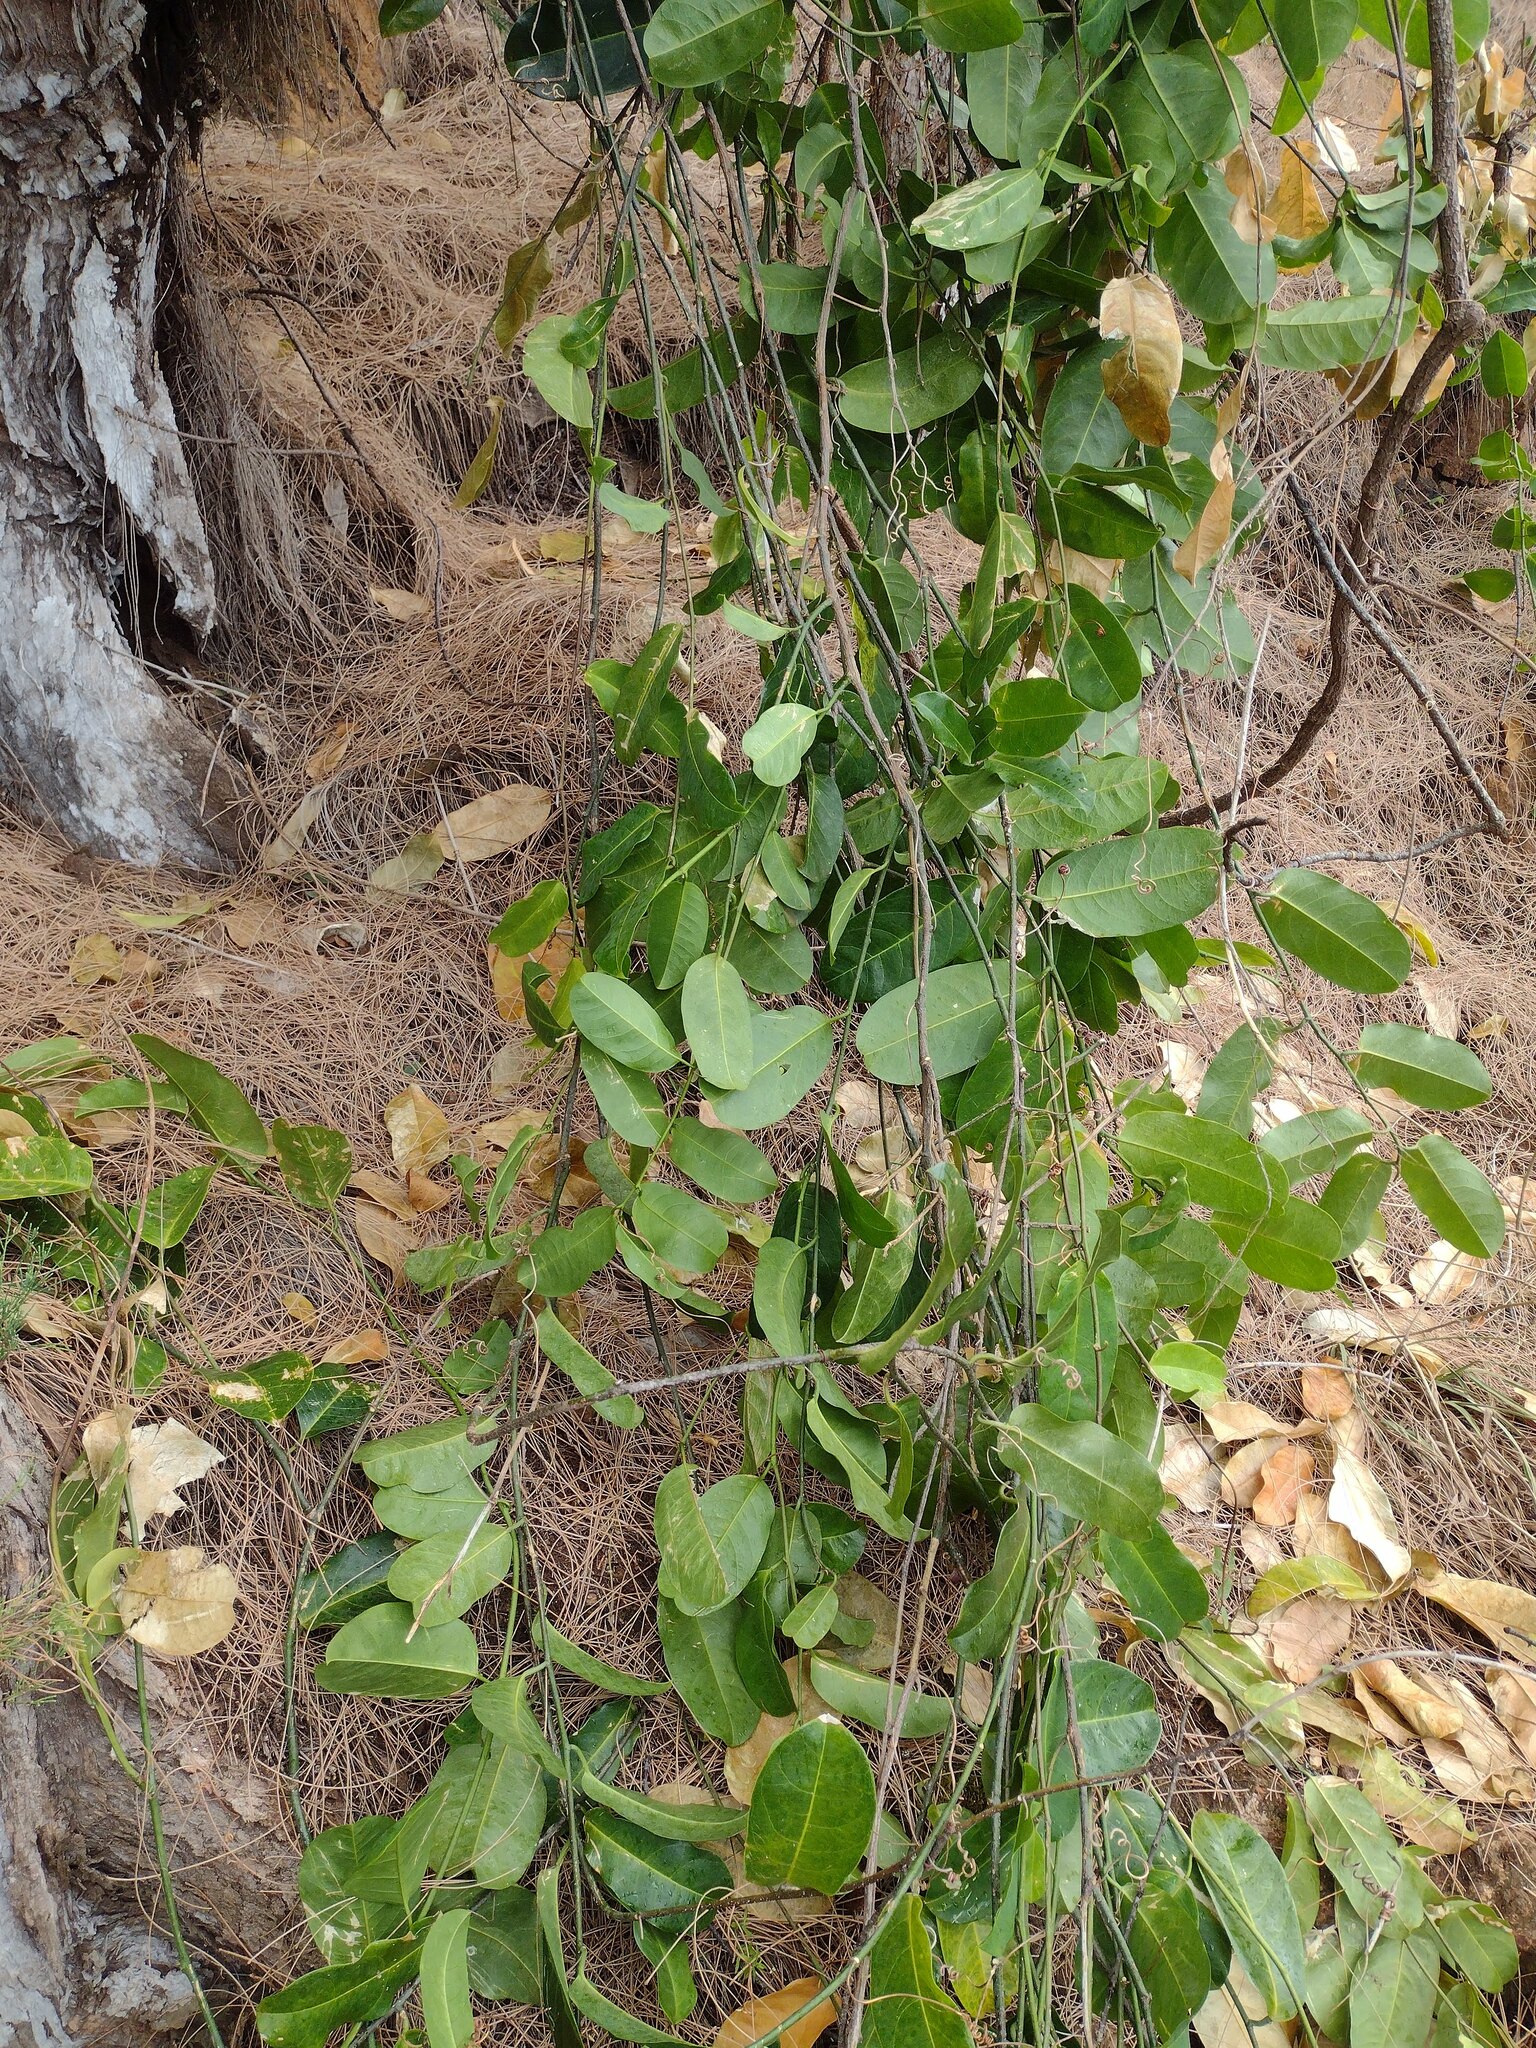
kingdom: Plantae
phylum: Tracheophyta
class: Magnoliopsida
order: Malpighiales
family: Passifloraceae
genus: Passiflora
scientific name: Passiflora laurifolia
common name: Bell apple
